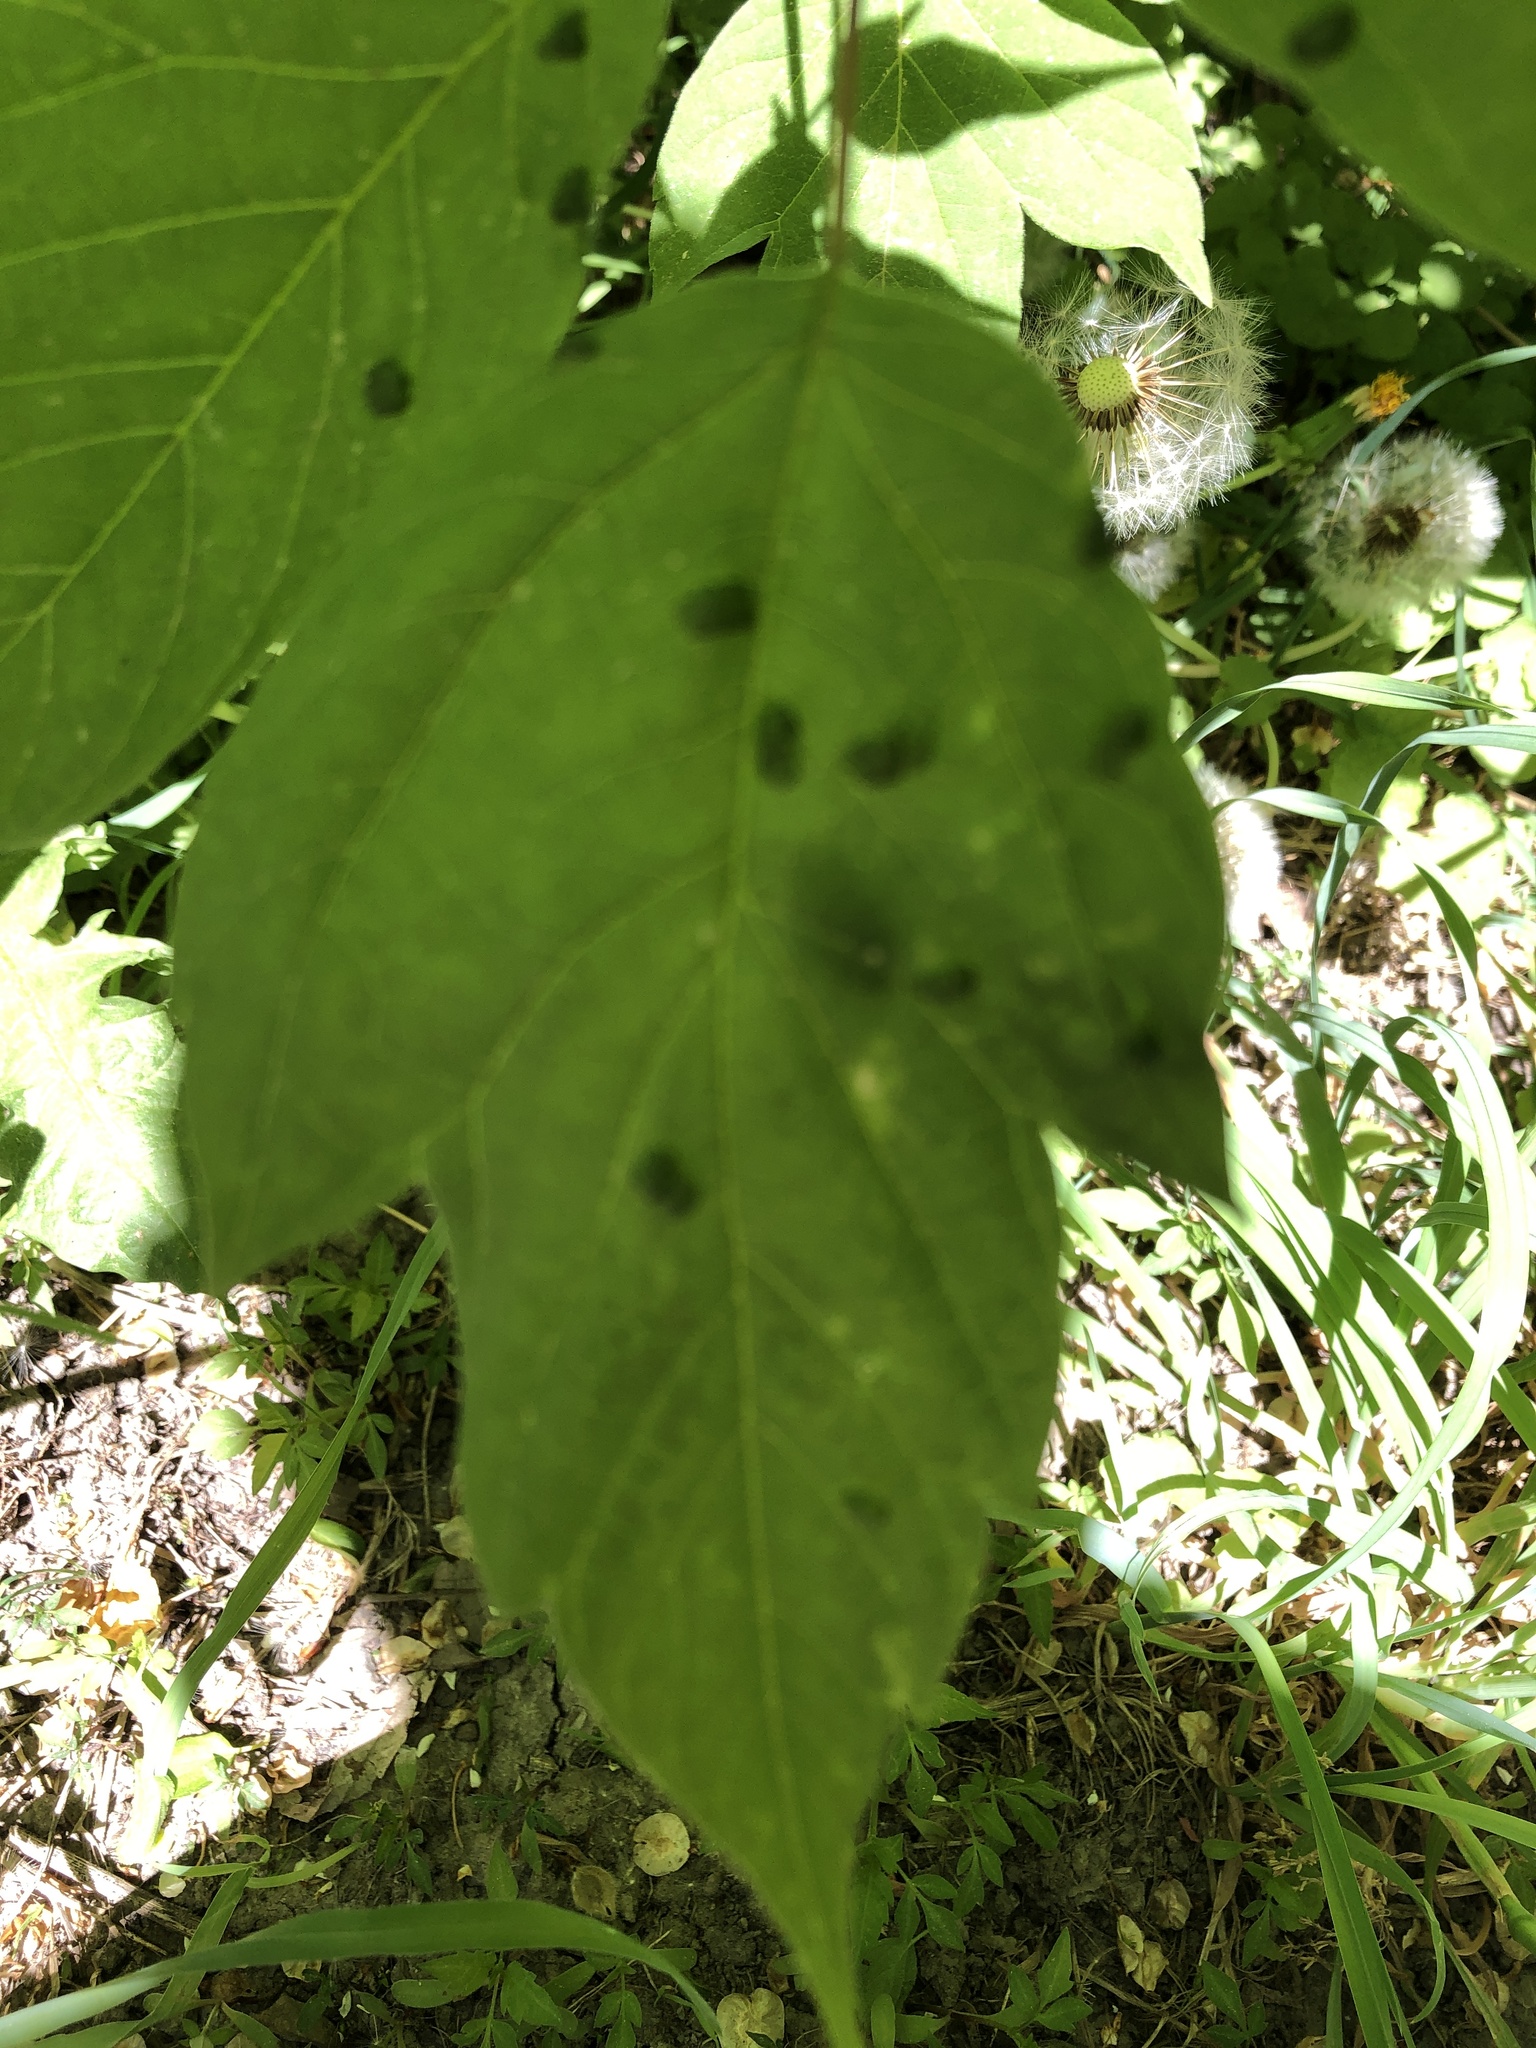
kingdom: Animalia
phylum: Arthropoda
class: Arachnida
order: Trombidiformes
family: Eriophyidae
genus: Aceria
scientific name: Aceria
